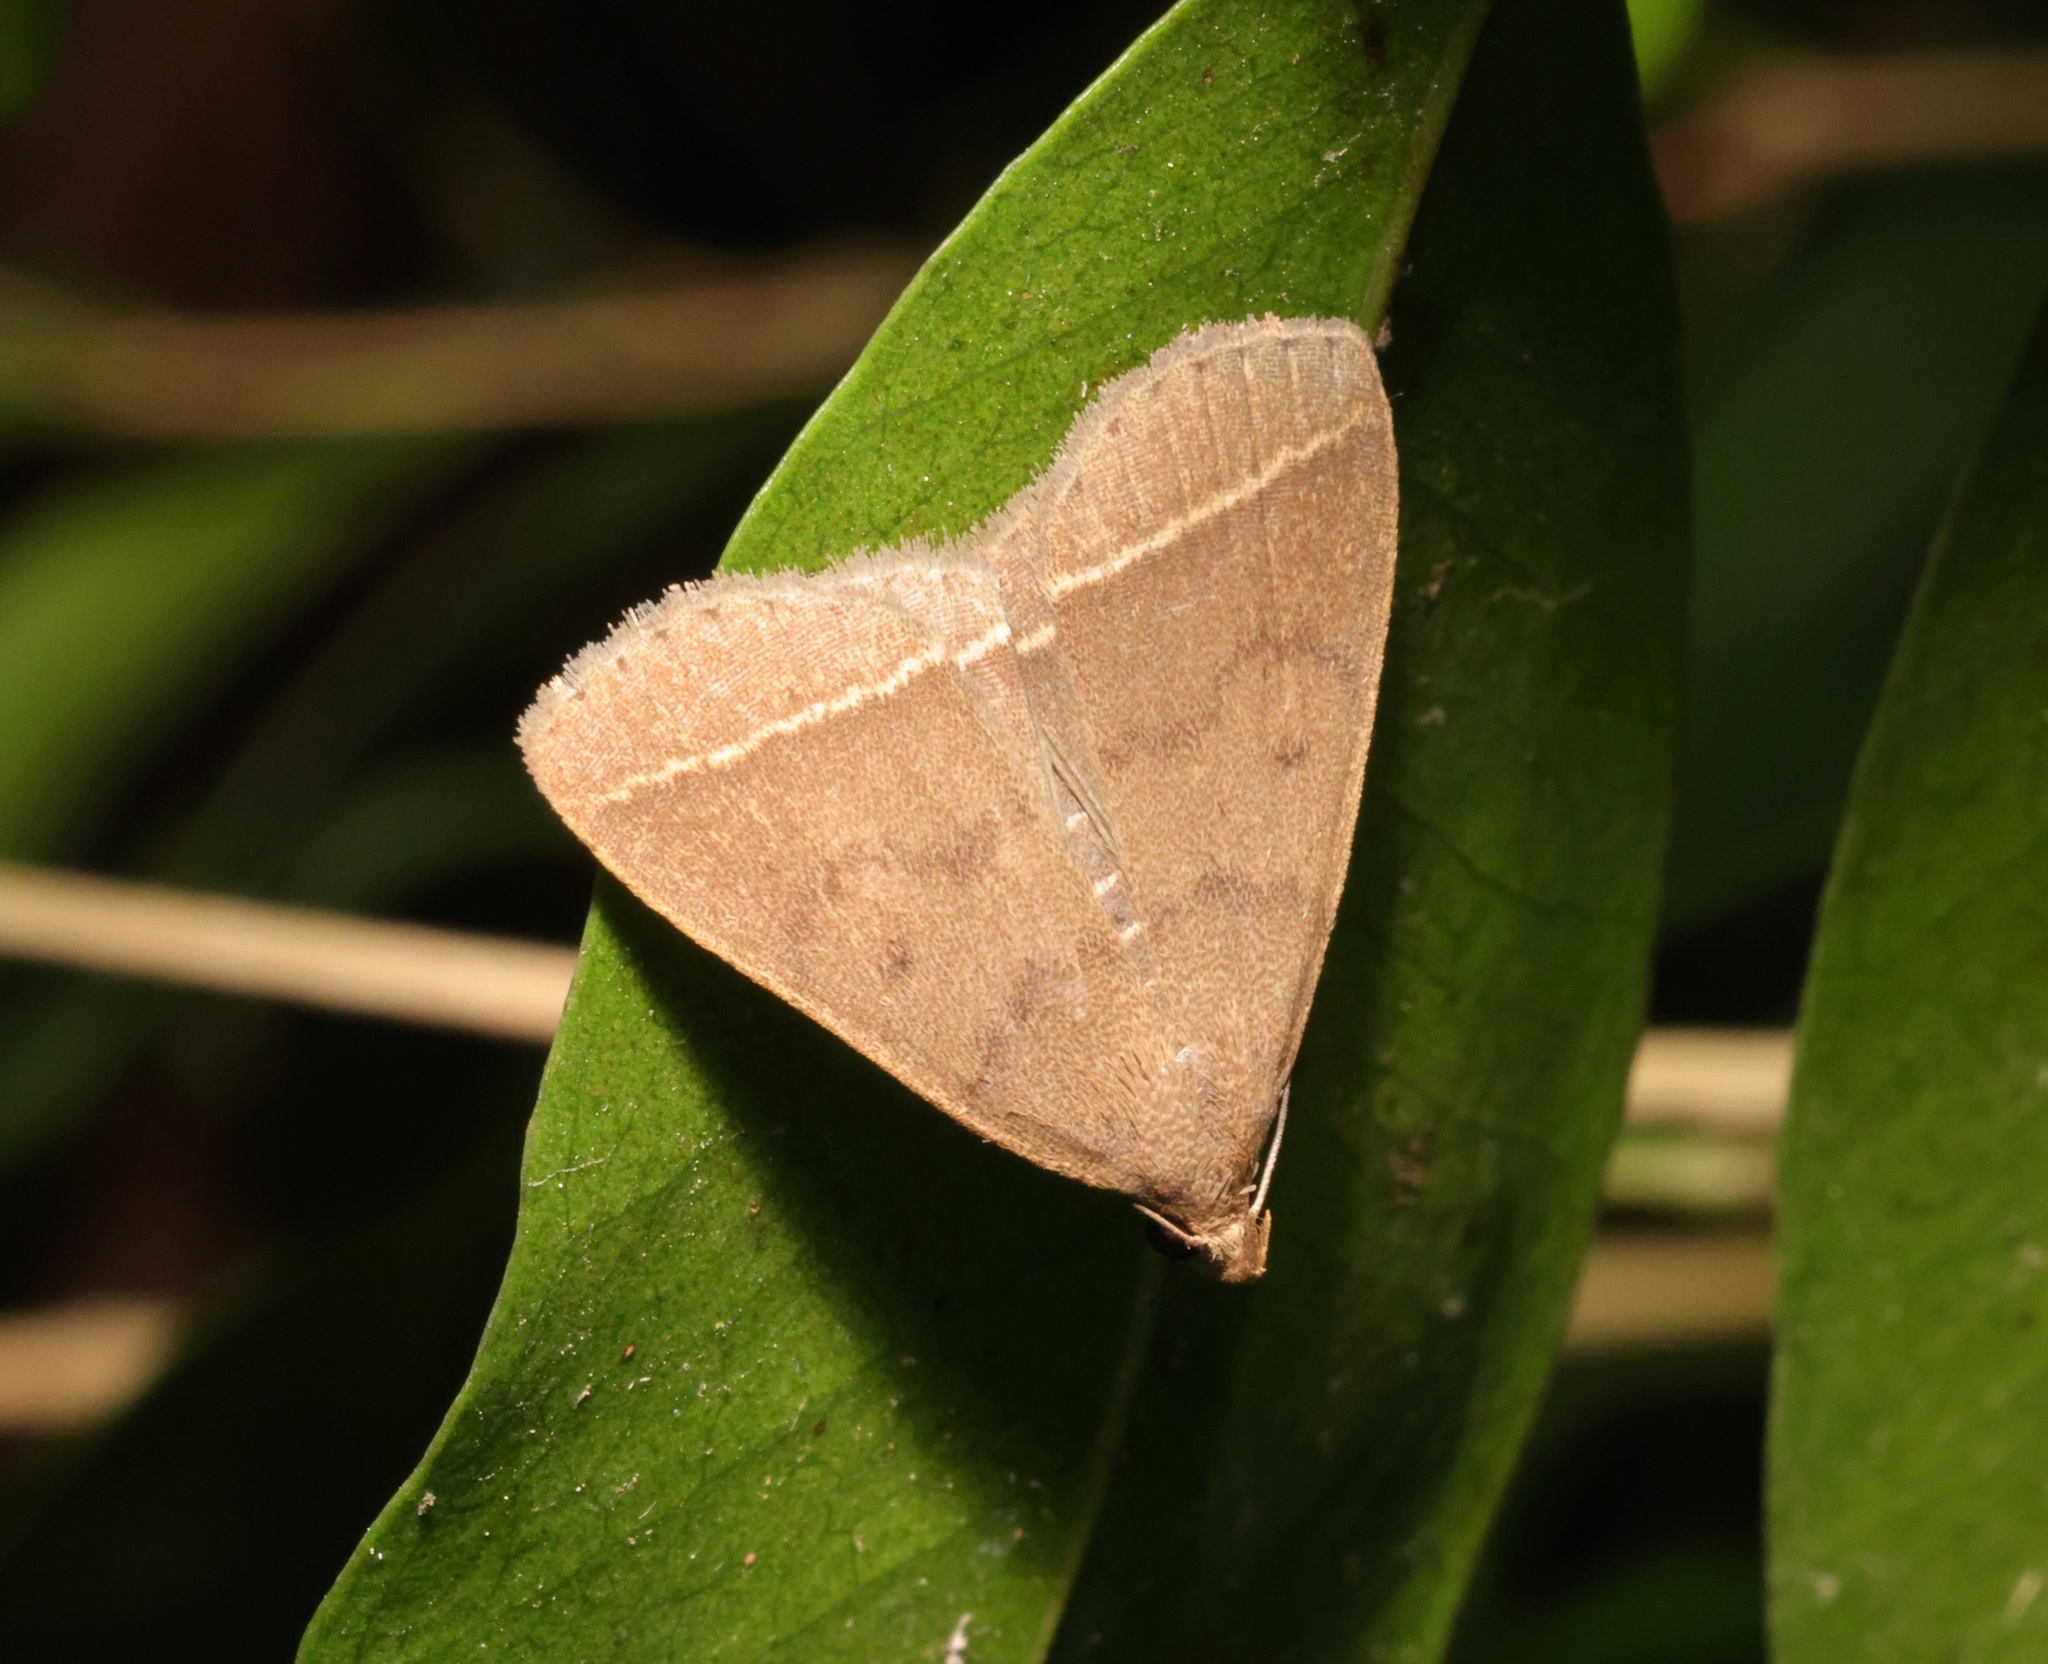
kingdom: Animalia
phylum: Arthropoda
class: Insecta
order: Lepidoptera
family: Erebidae
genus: Simplicia
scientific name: Simplicia cornicalis
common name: Tiki hut litter moth
